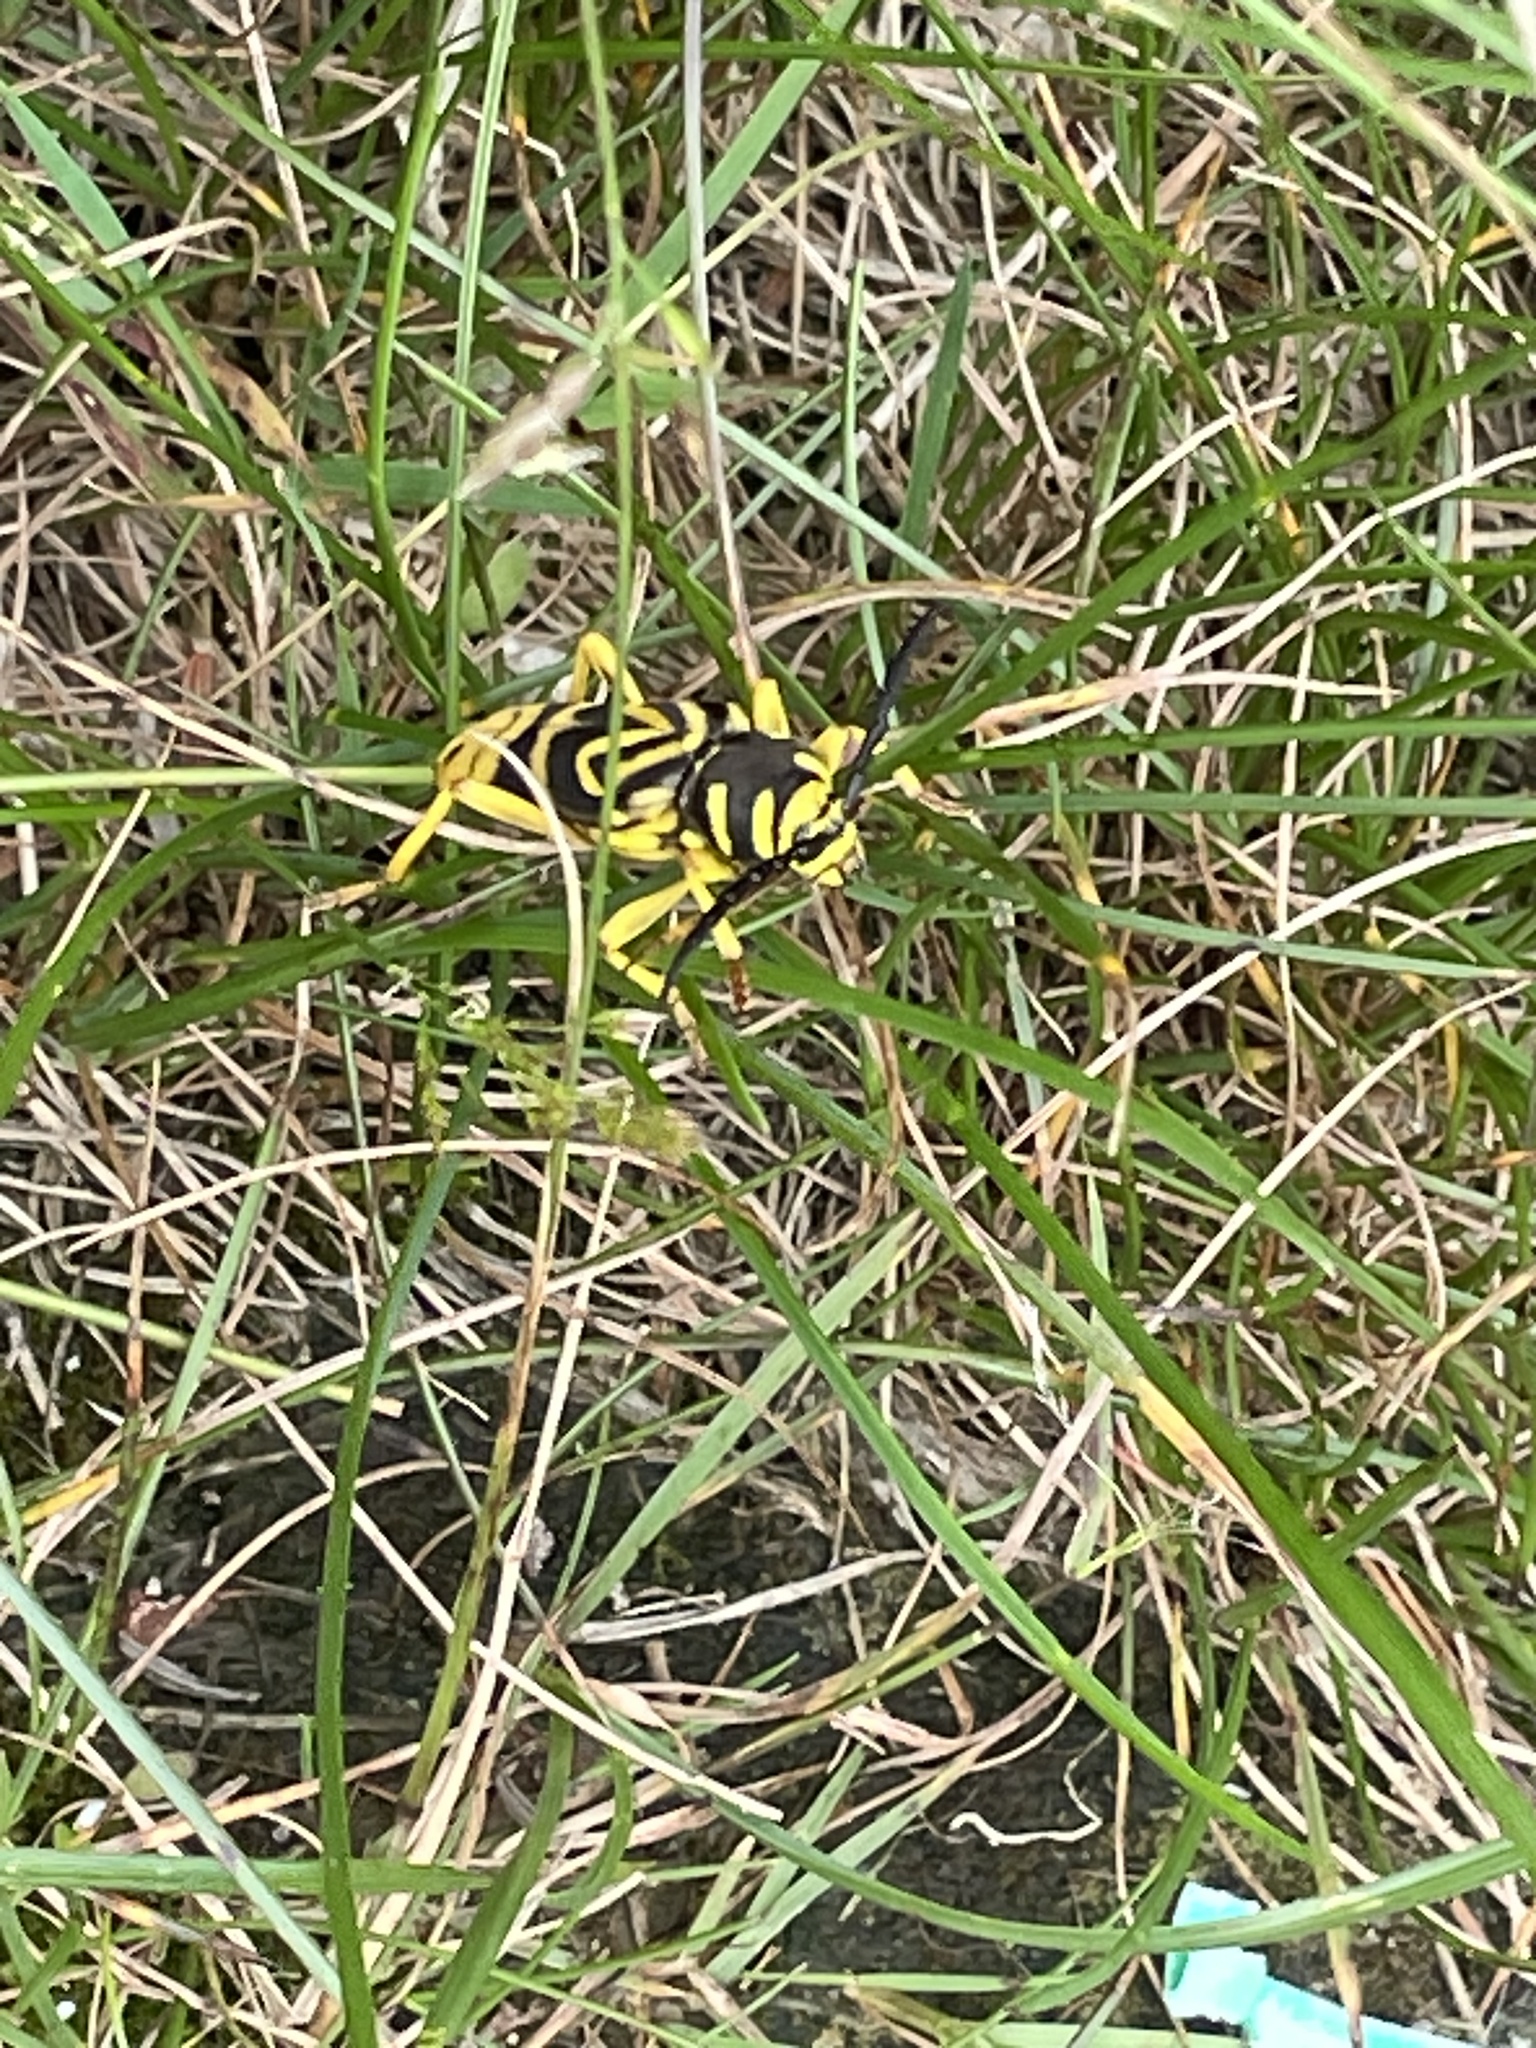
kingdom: Animalia
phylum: Arthropoda
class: Insecta
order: Coleoptera
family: Cerambycidae
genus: Glycobius
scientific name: Glycobius speciosus
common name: Sugar maple borer
